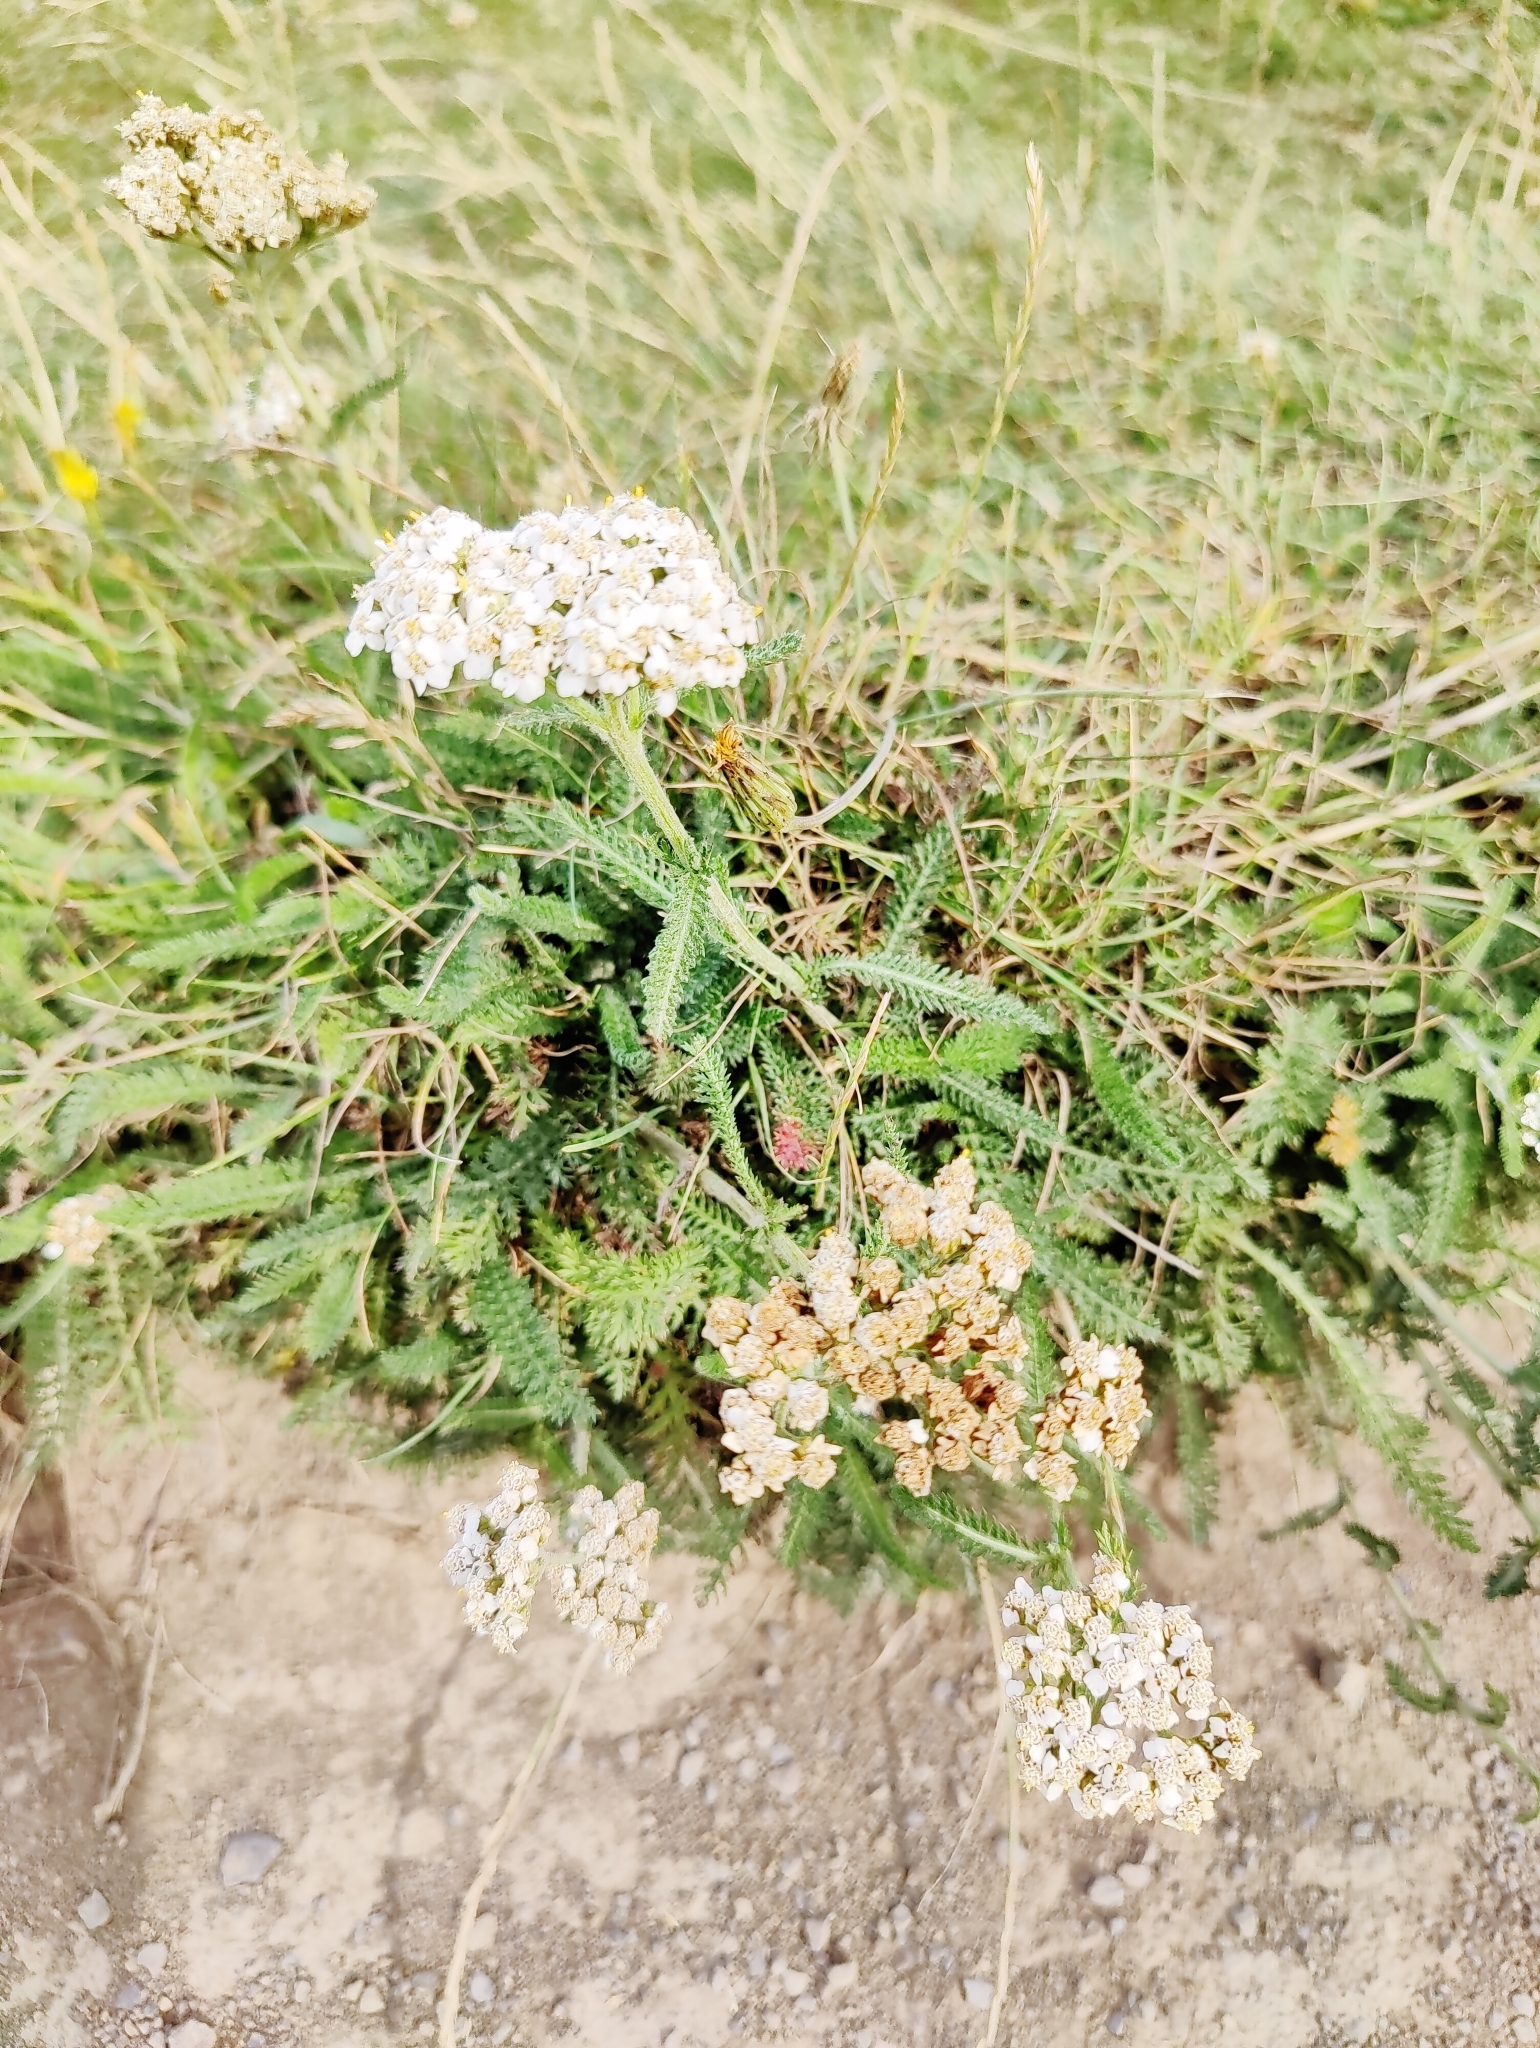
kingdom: Plantae
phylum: Tracheophyta
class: Magnoliopsida
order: Asterales
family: Asteraceae
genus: Achillea
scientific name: Achillea millefolium
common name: Yarrow
